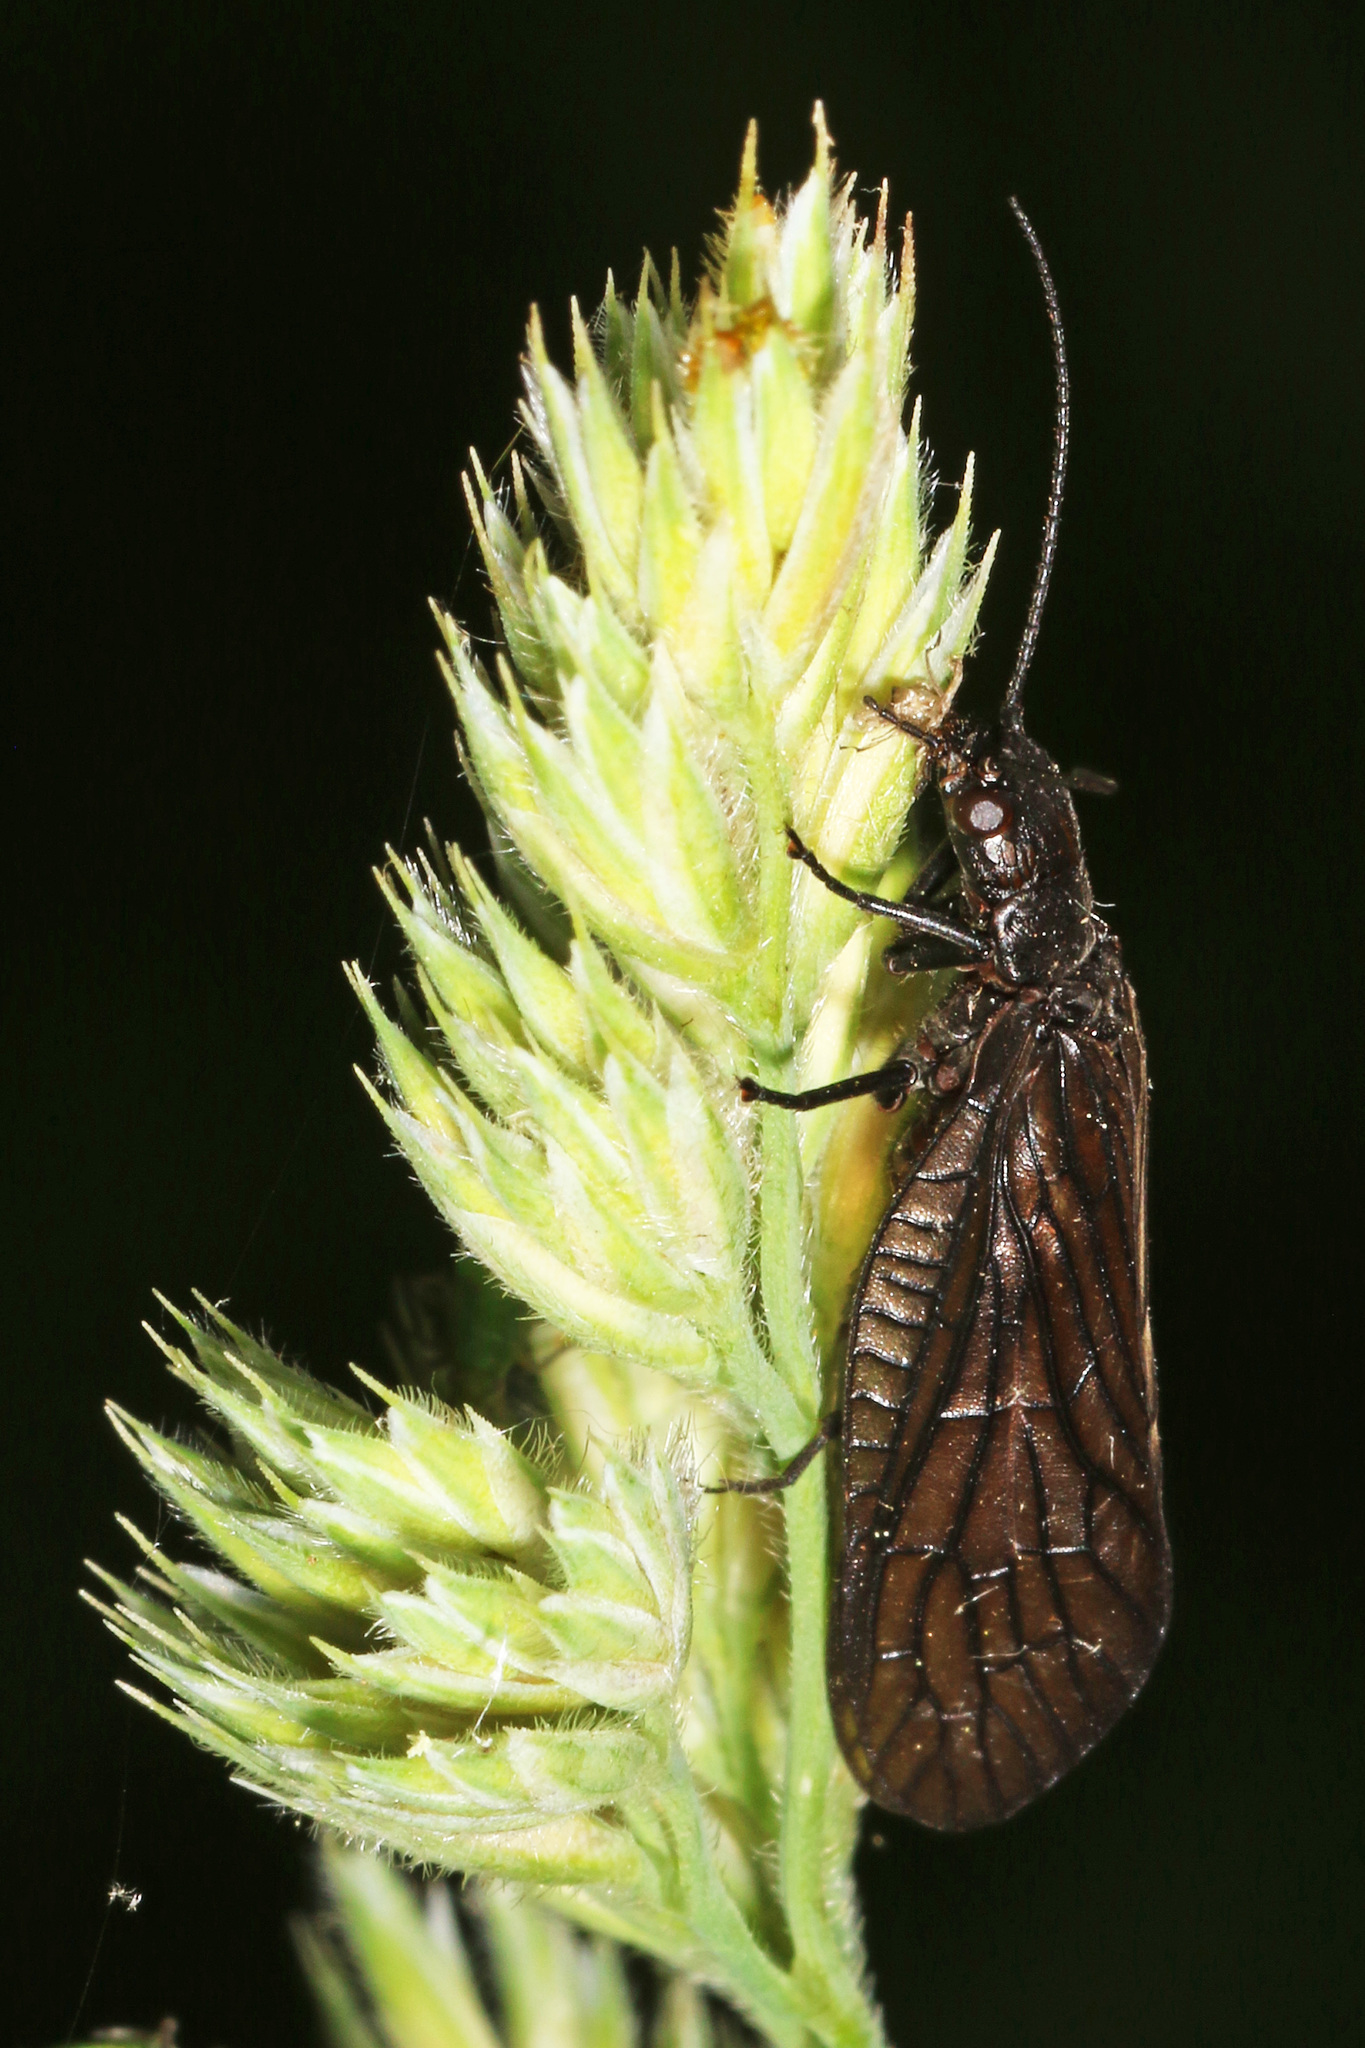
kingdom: Animalia
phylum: Arthropoda
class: Insecta
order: Megaloptera
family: Sialidae
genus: Sialis
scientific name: Sialis
